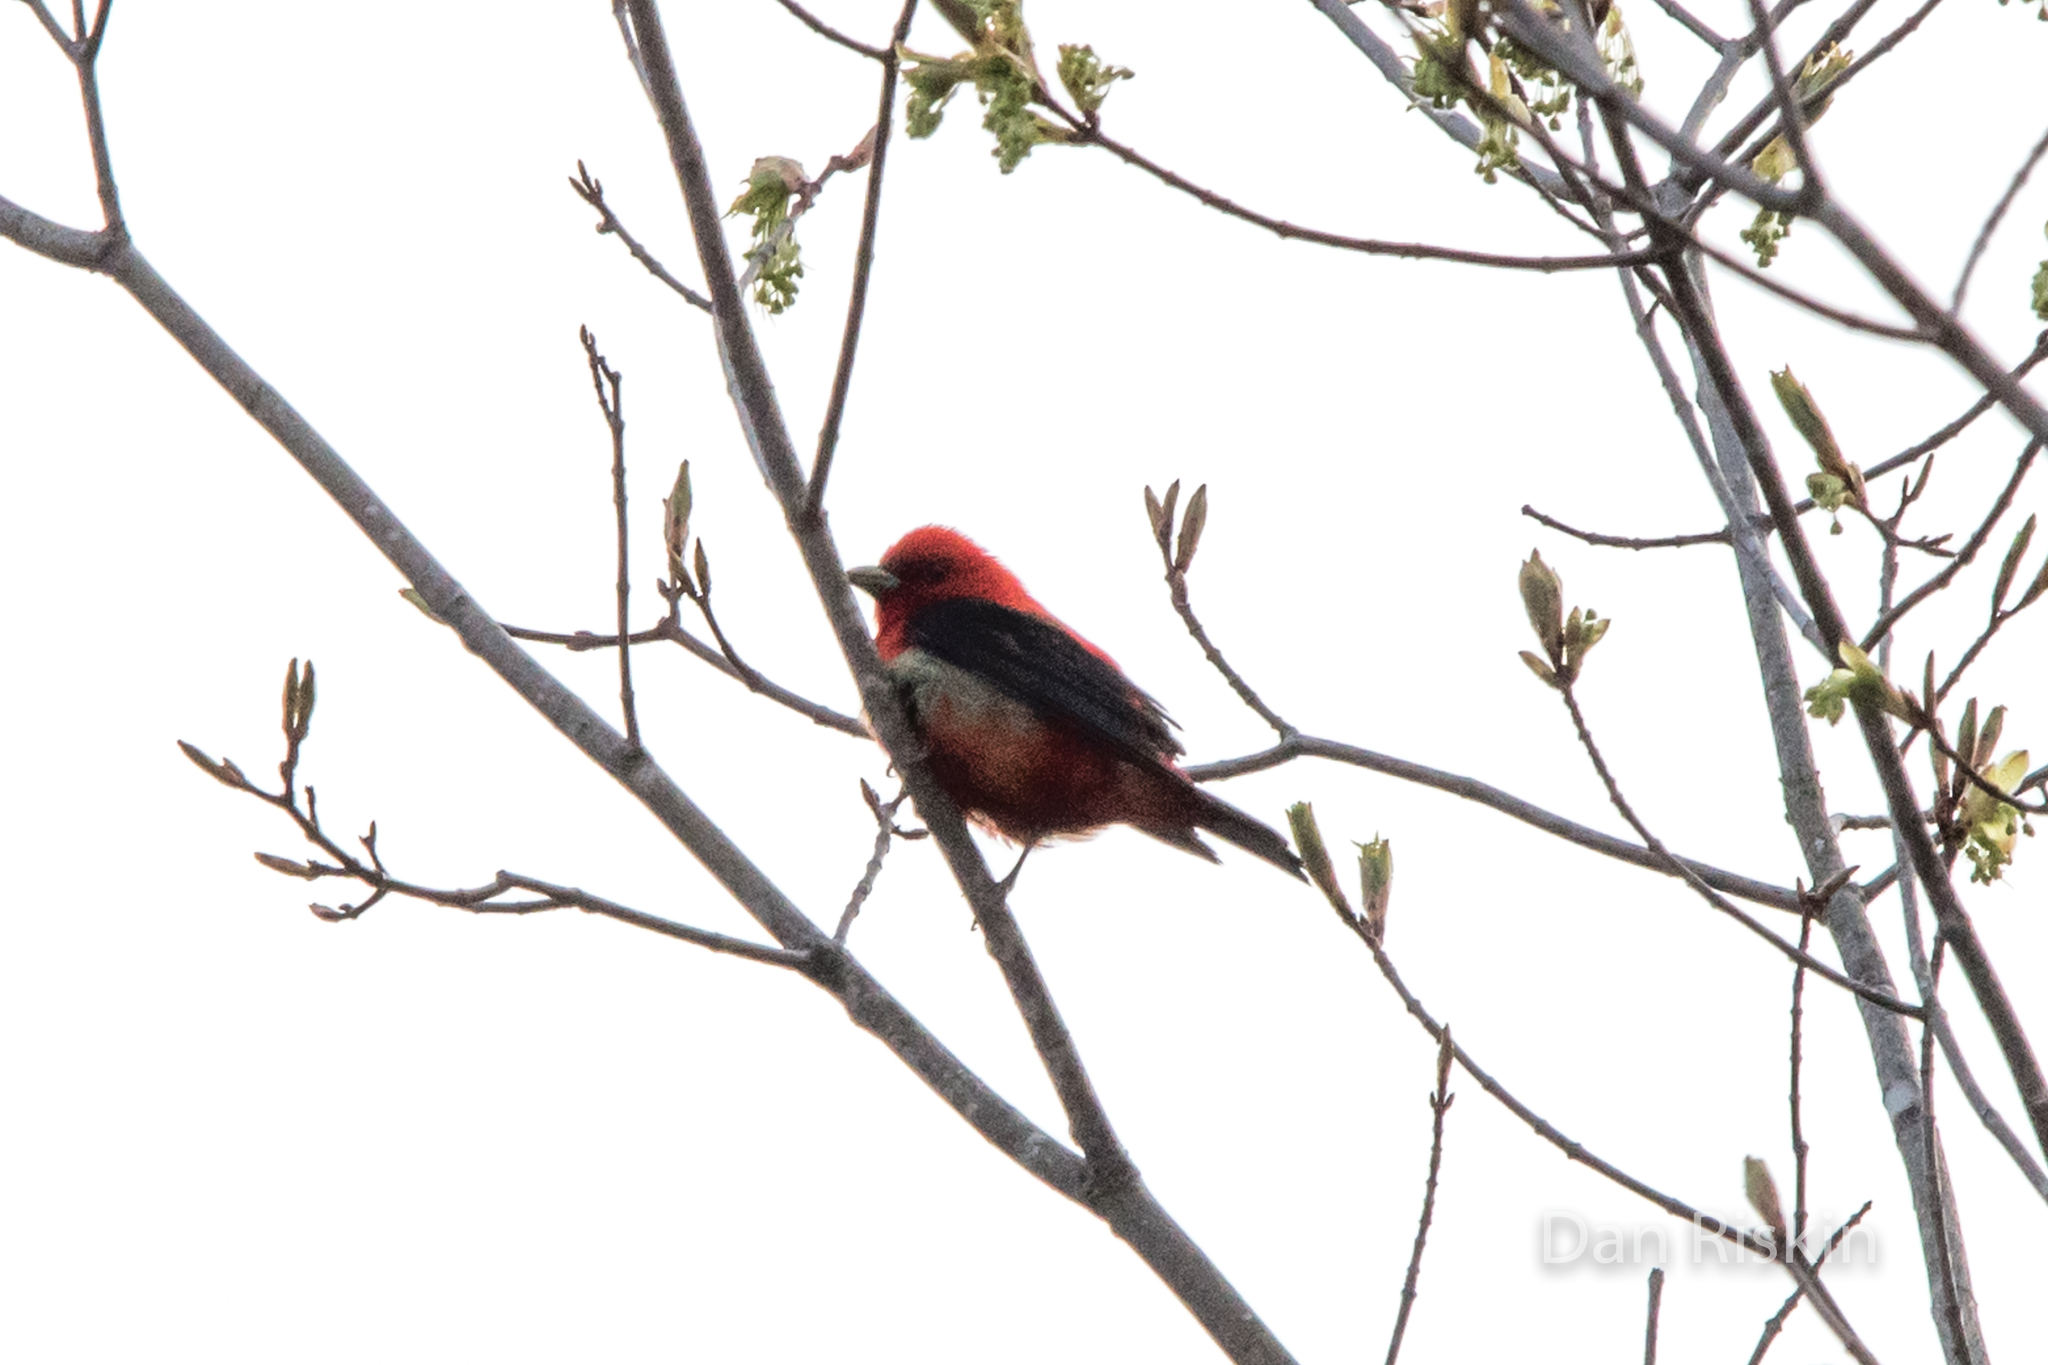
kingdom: Animalia
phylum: Chordata
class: Aves
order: Passeriformes
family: Cardinalidae
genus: Piranga
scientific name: Piranga olivacea
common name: Scarlet tanager
